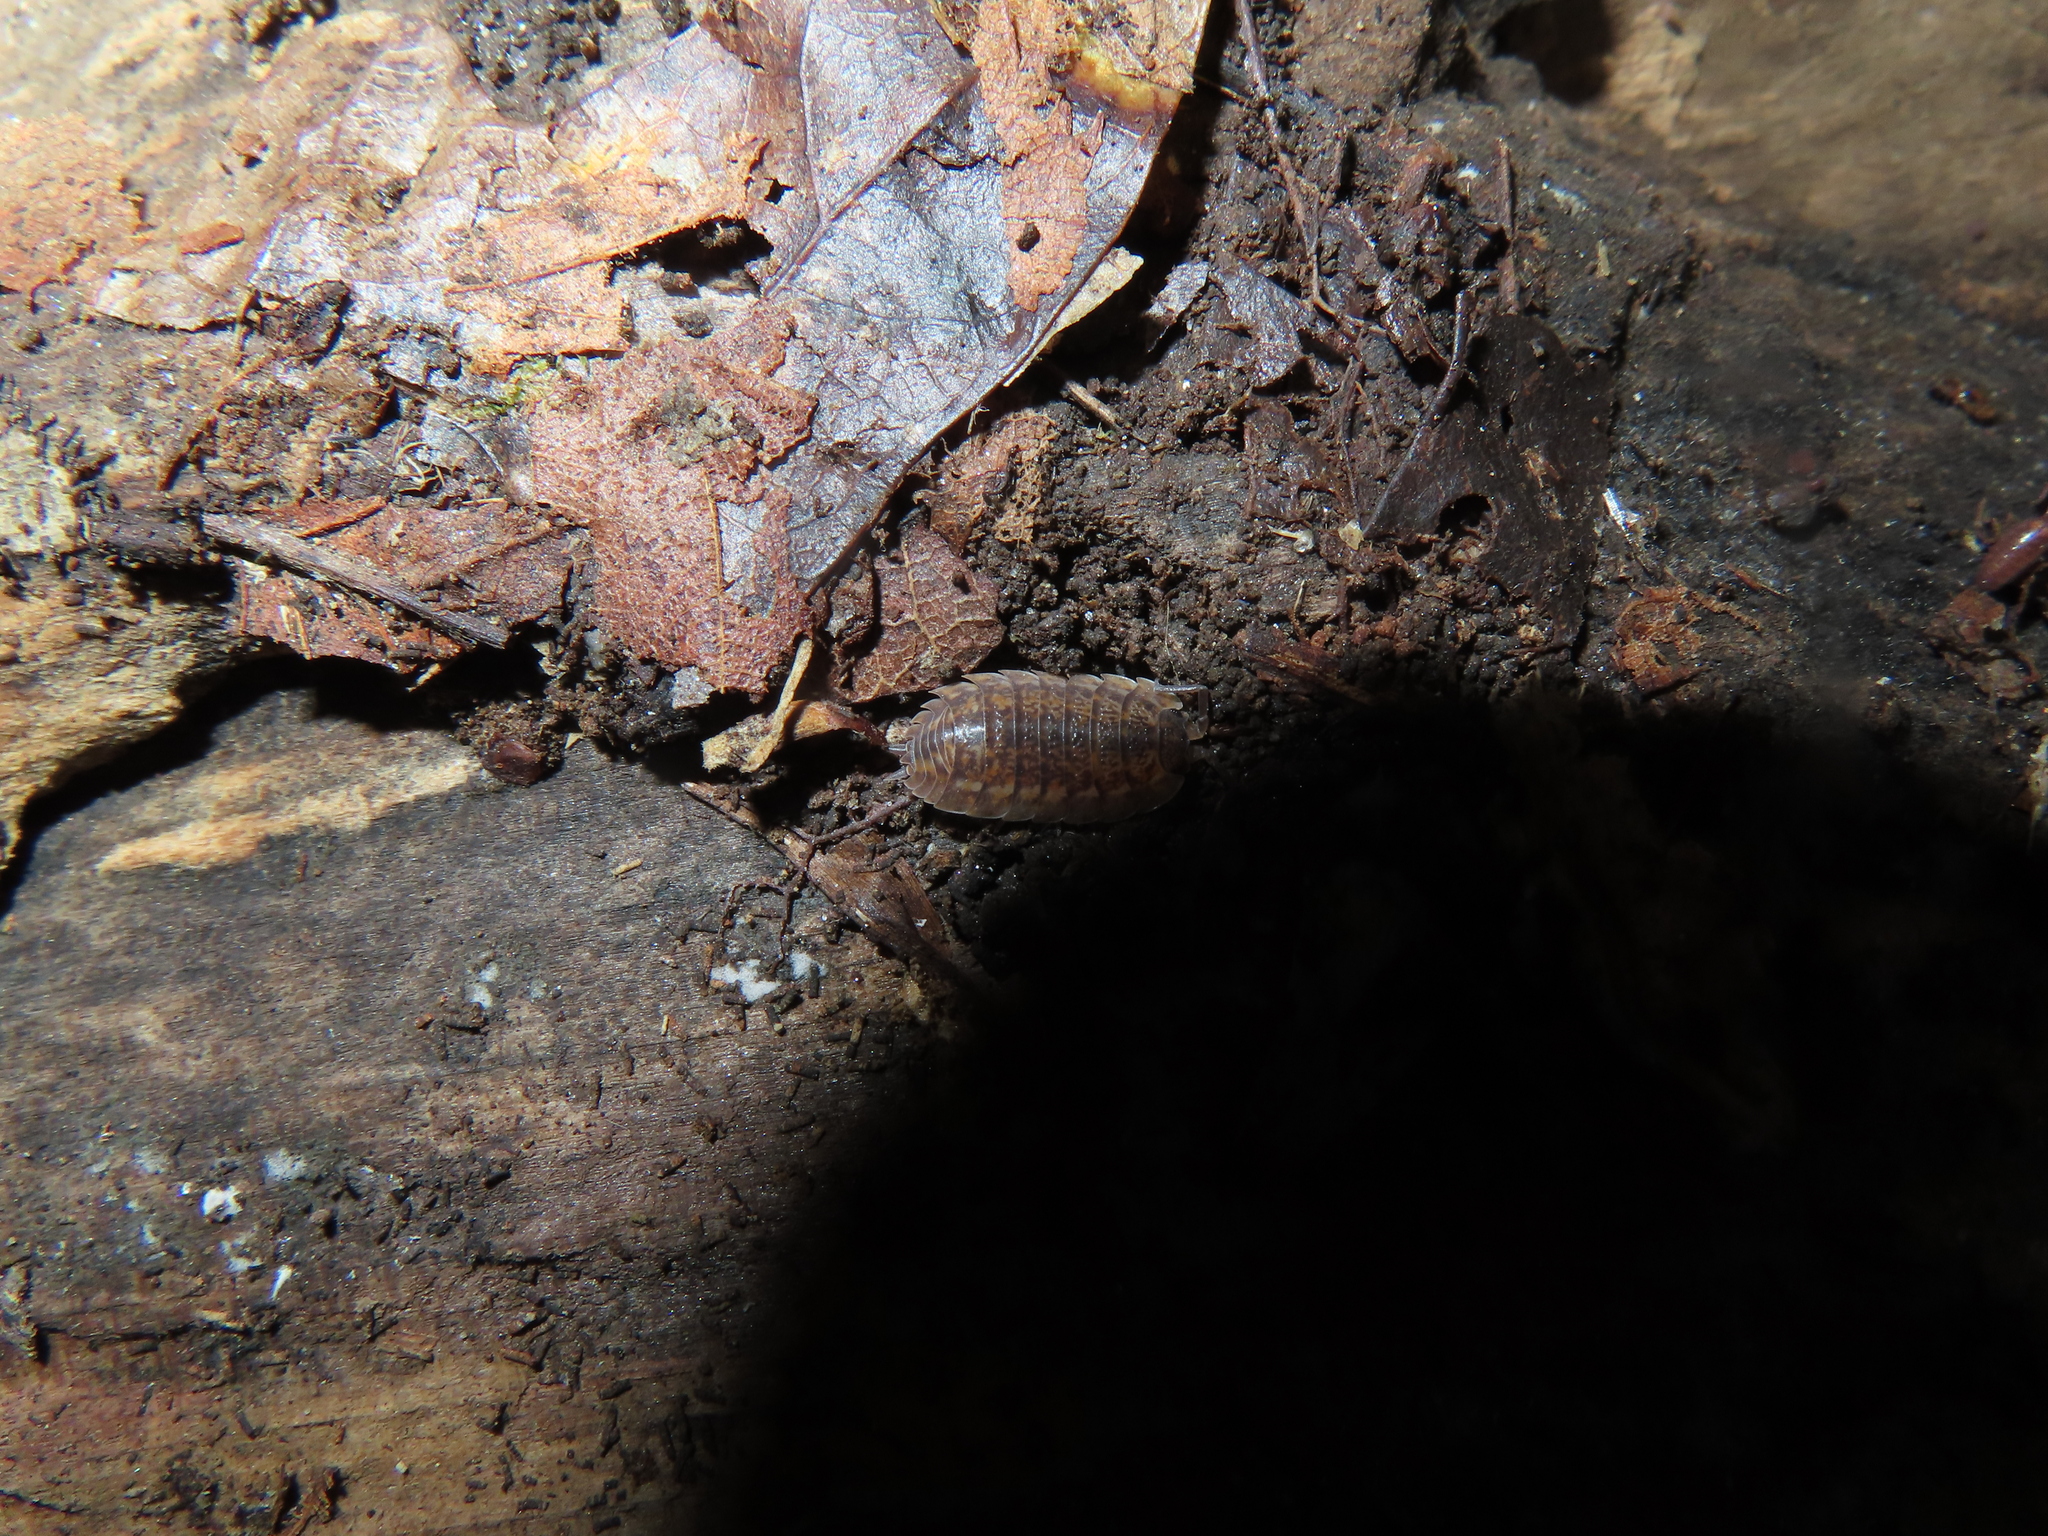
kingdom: Animalia
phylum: Arthropoda
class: Malacostraca
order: Isopoda
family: Trachelipodidae
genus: Trachelipus
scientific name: Trachelipus rathkii
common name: Isopod
